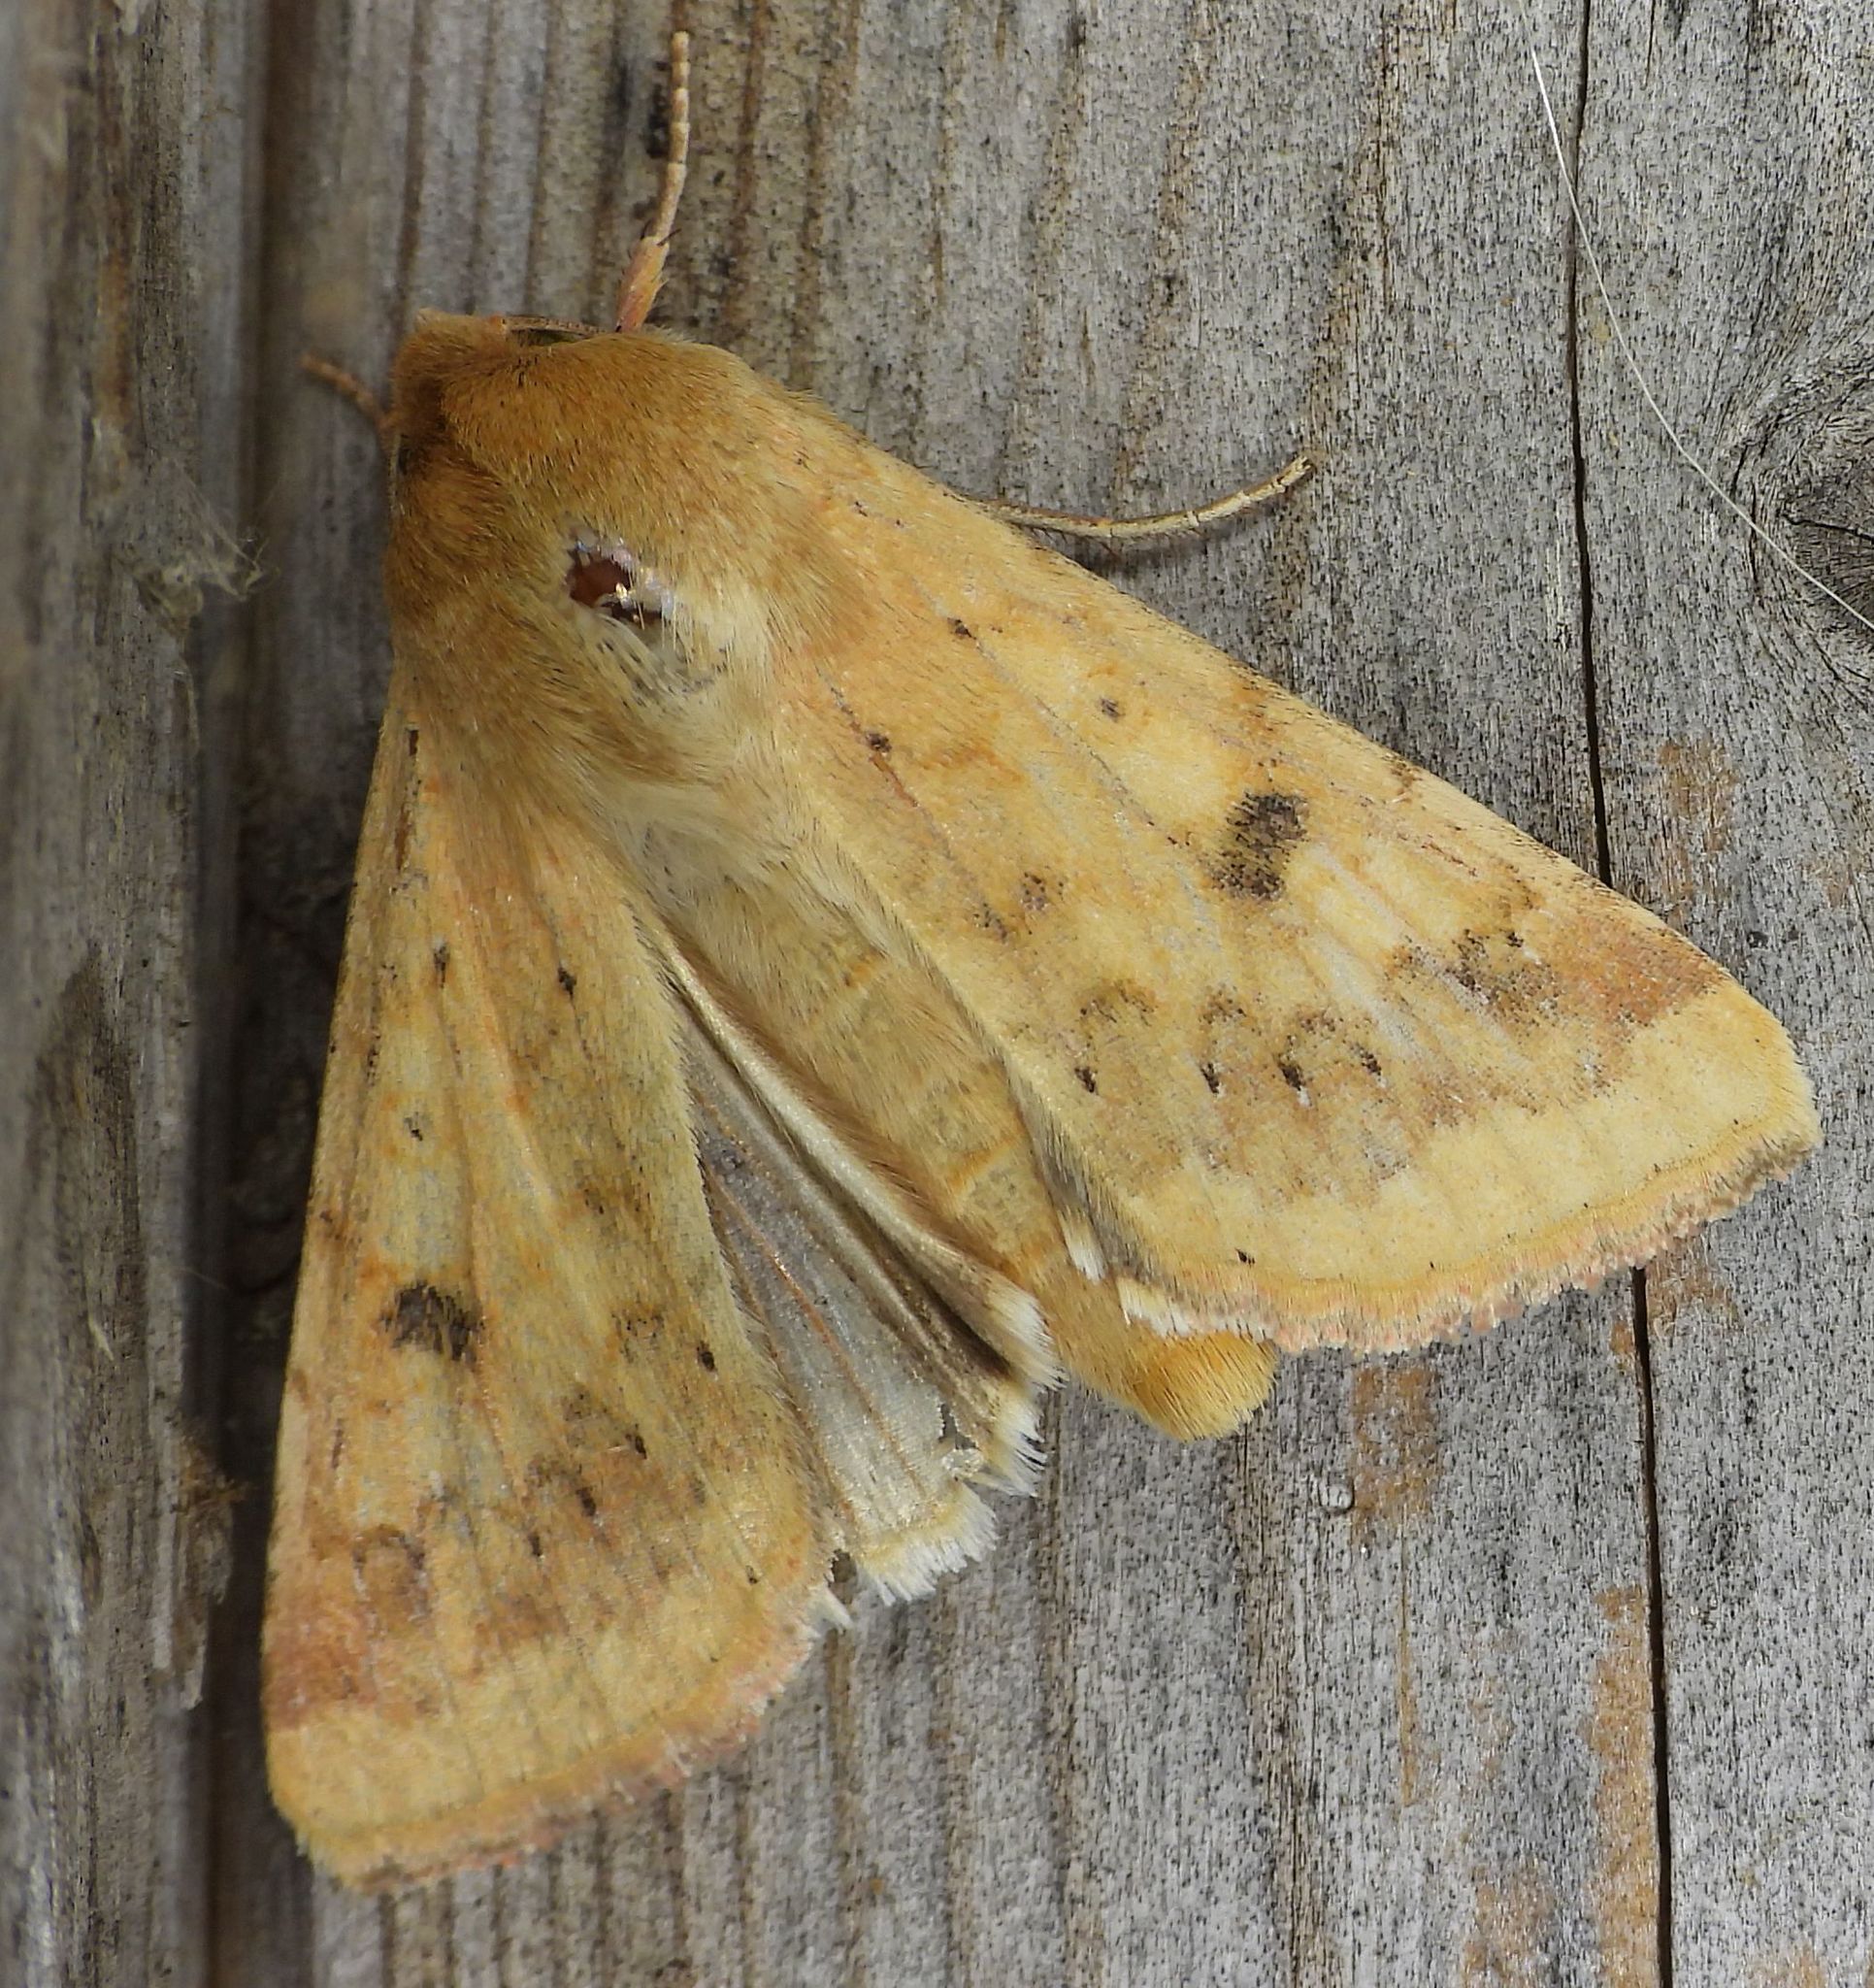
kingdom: Animalia
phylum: Arthropoda
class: Insecta
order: Lepidoptera
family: Noctuidae
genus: Helicoverpa
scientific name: Helicoverpa zea
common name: Bollworm
